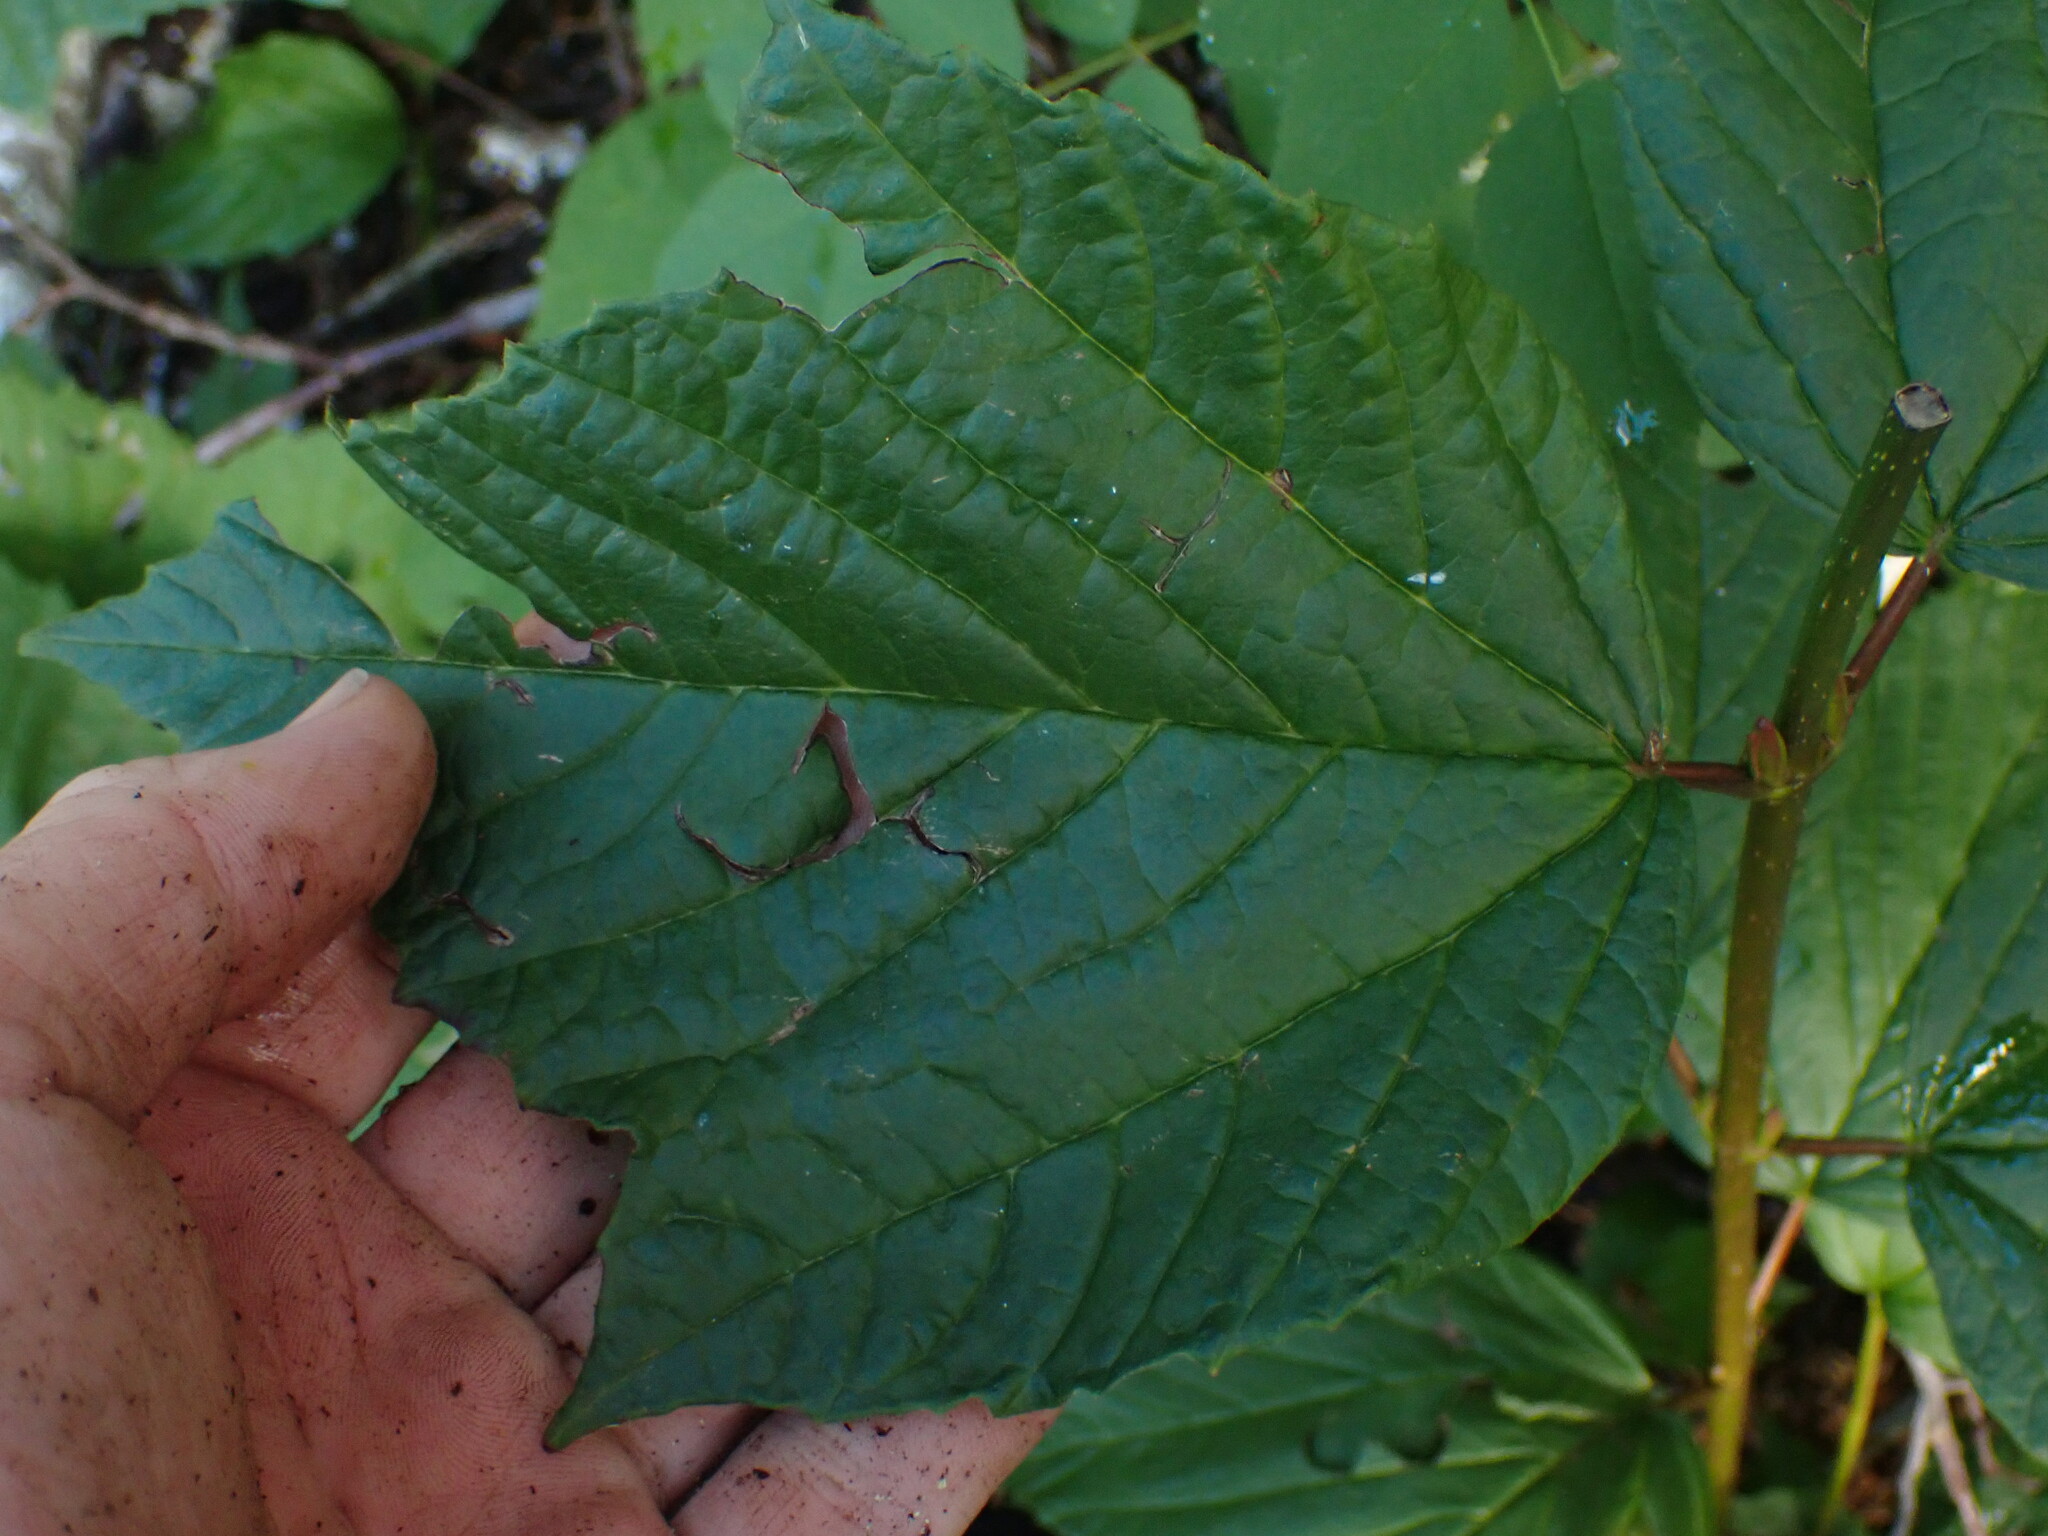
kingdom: Plantae
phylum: Tracheophyta
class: Magnoliopsida
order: Dipsacales
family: Viburnaceae
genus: Viburnum
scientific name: Viburnum edule
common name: Mooseberry
